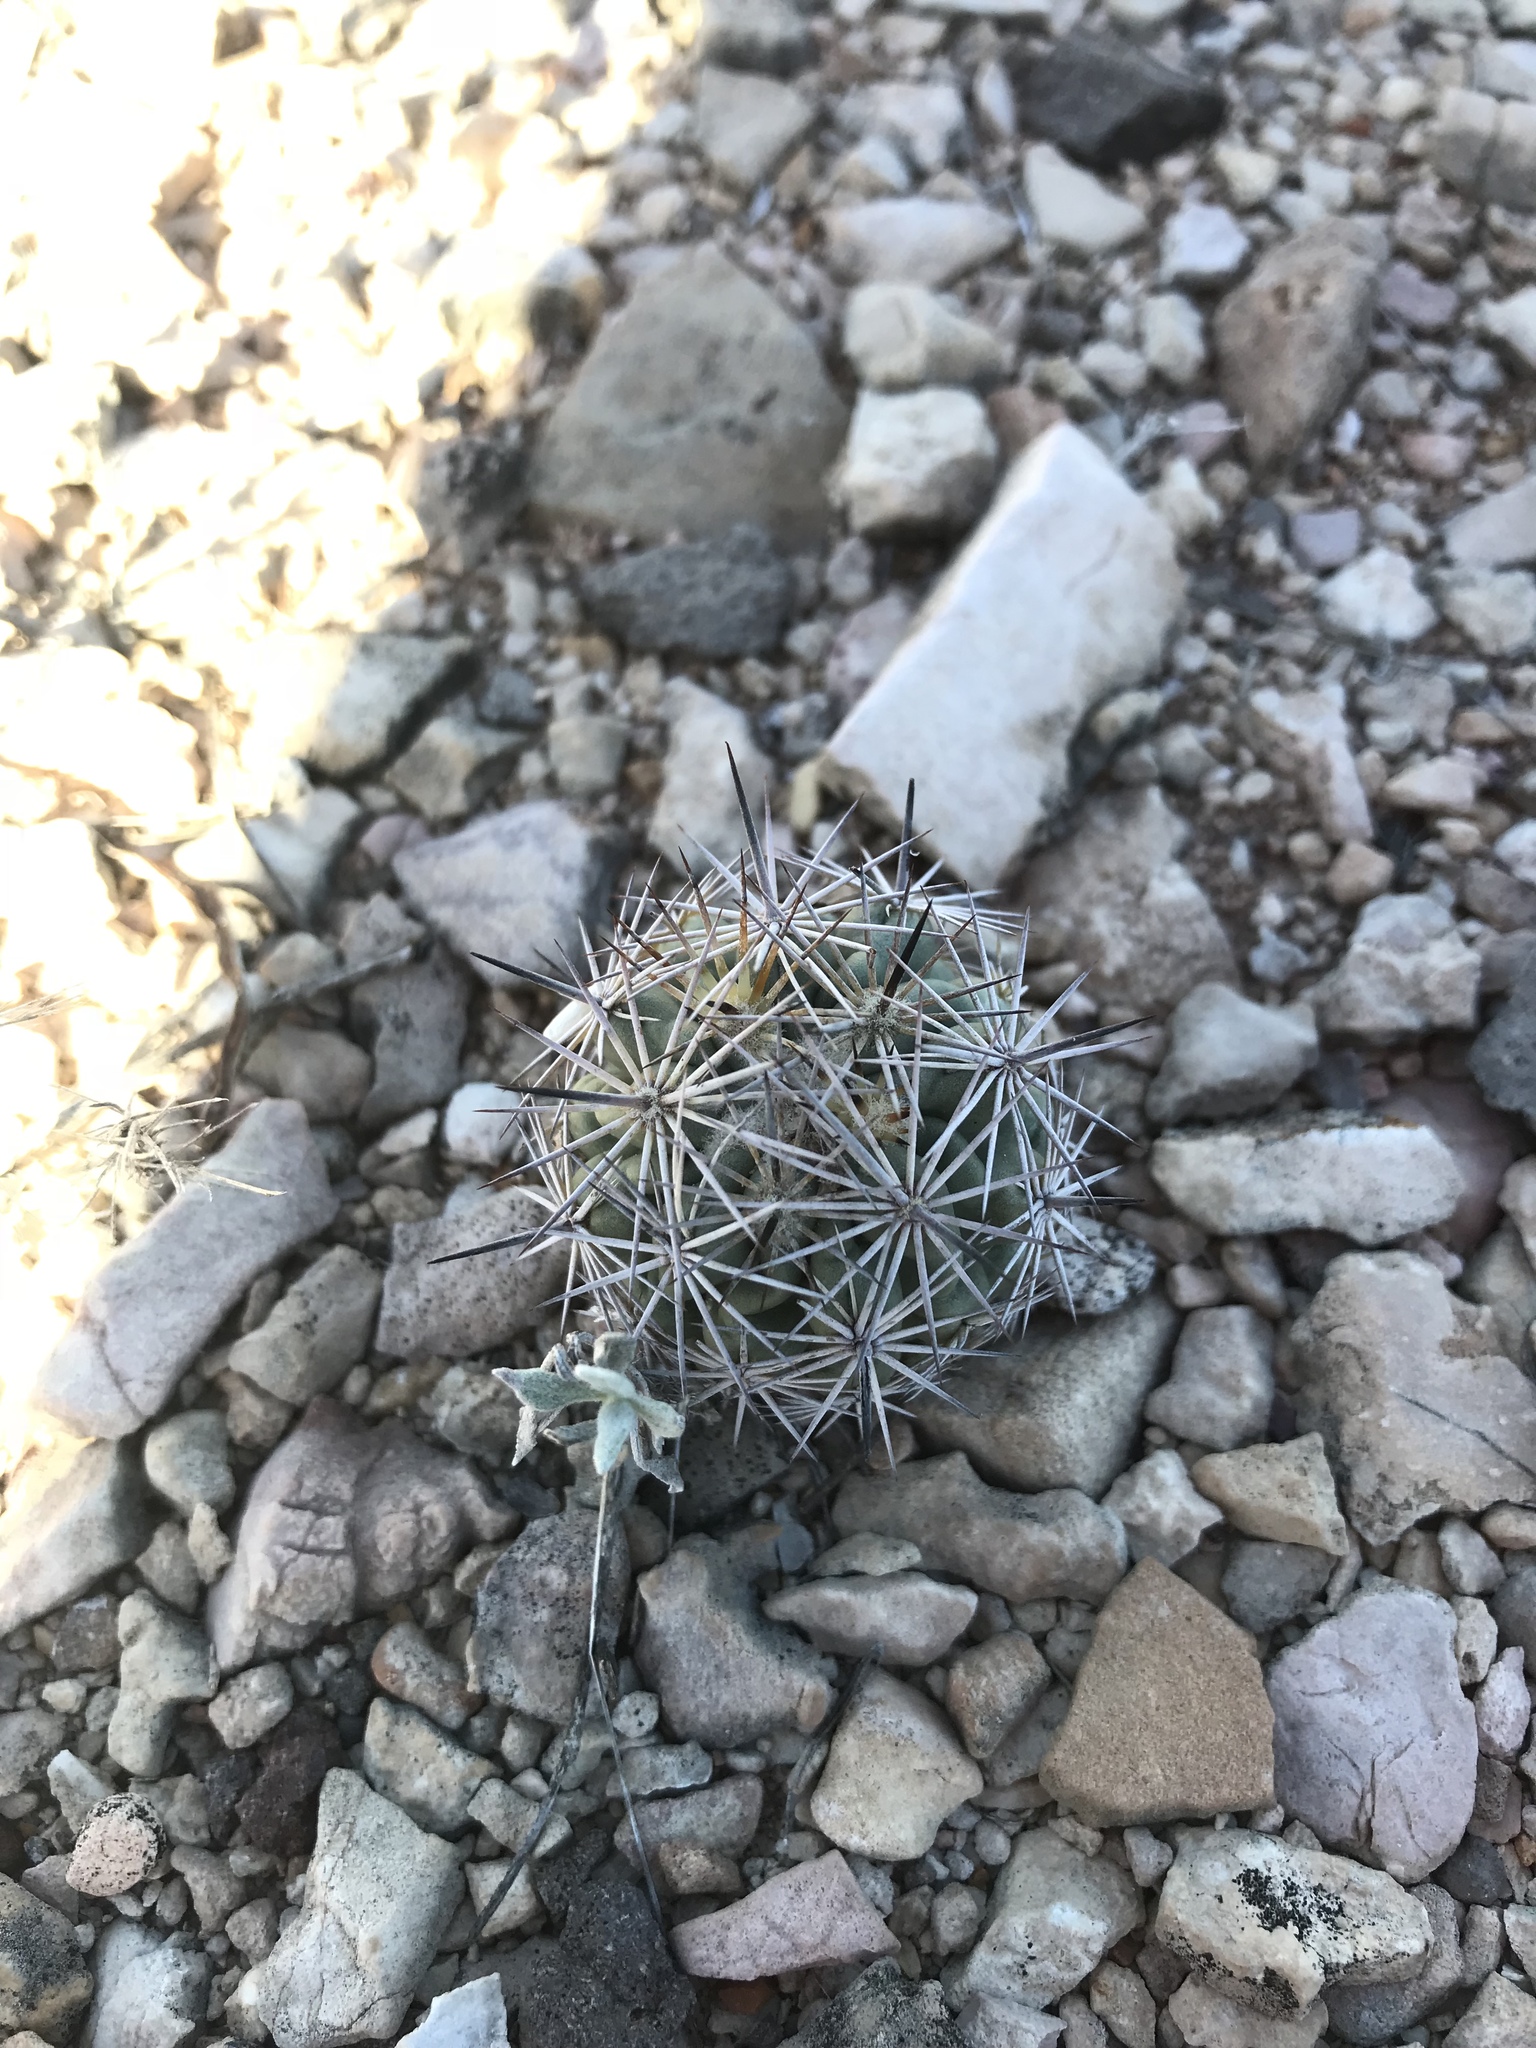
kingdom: Plantae
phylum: Tracheophyta
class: Magnoliopsida
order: Caryophyllales
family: Cactaceae
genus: Cochemiea
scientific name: Cochemiea conoidea
